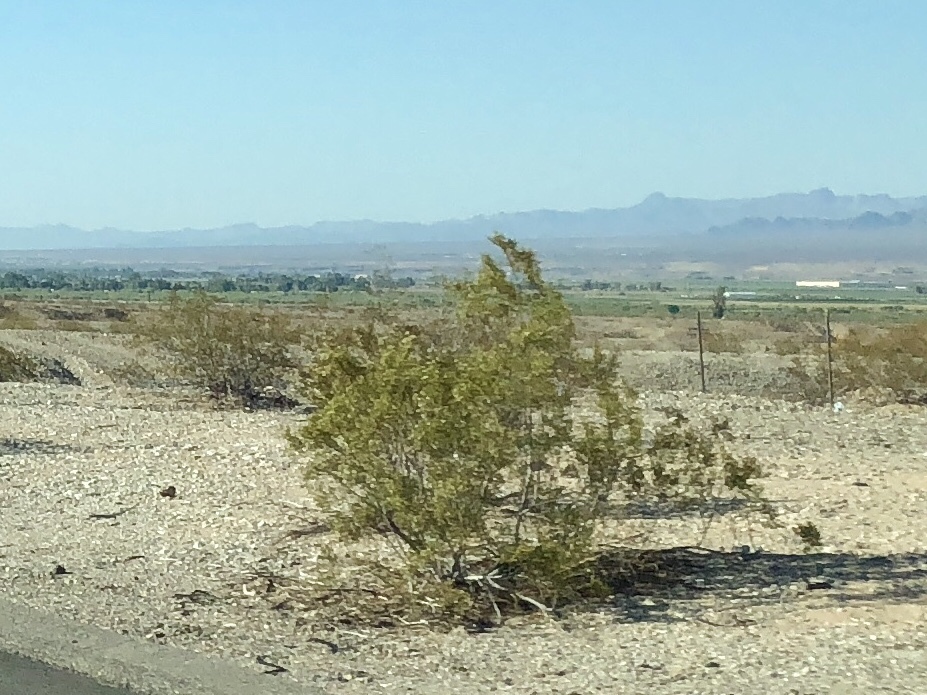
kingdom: Plantae
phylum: Tracheophyta
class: Magnoliopsida
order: Zygophyllales
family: Zygophyllaceae
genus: Larrea
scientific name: Larrea tridentata
